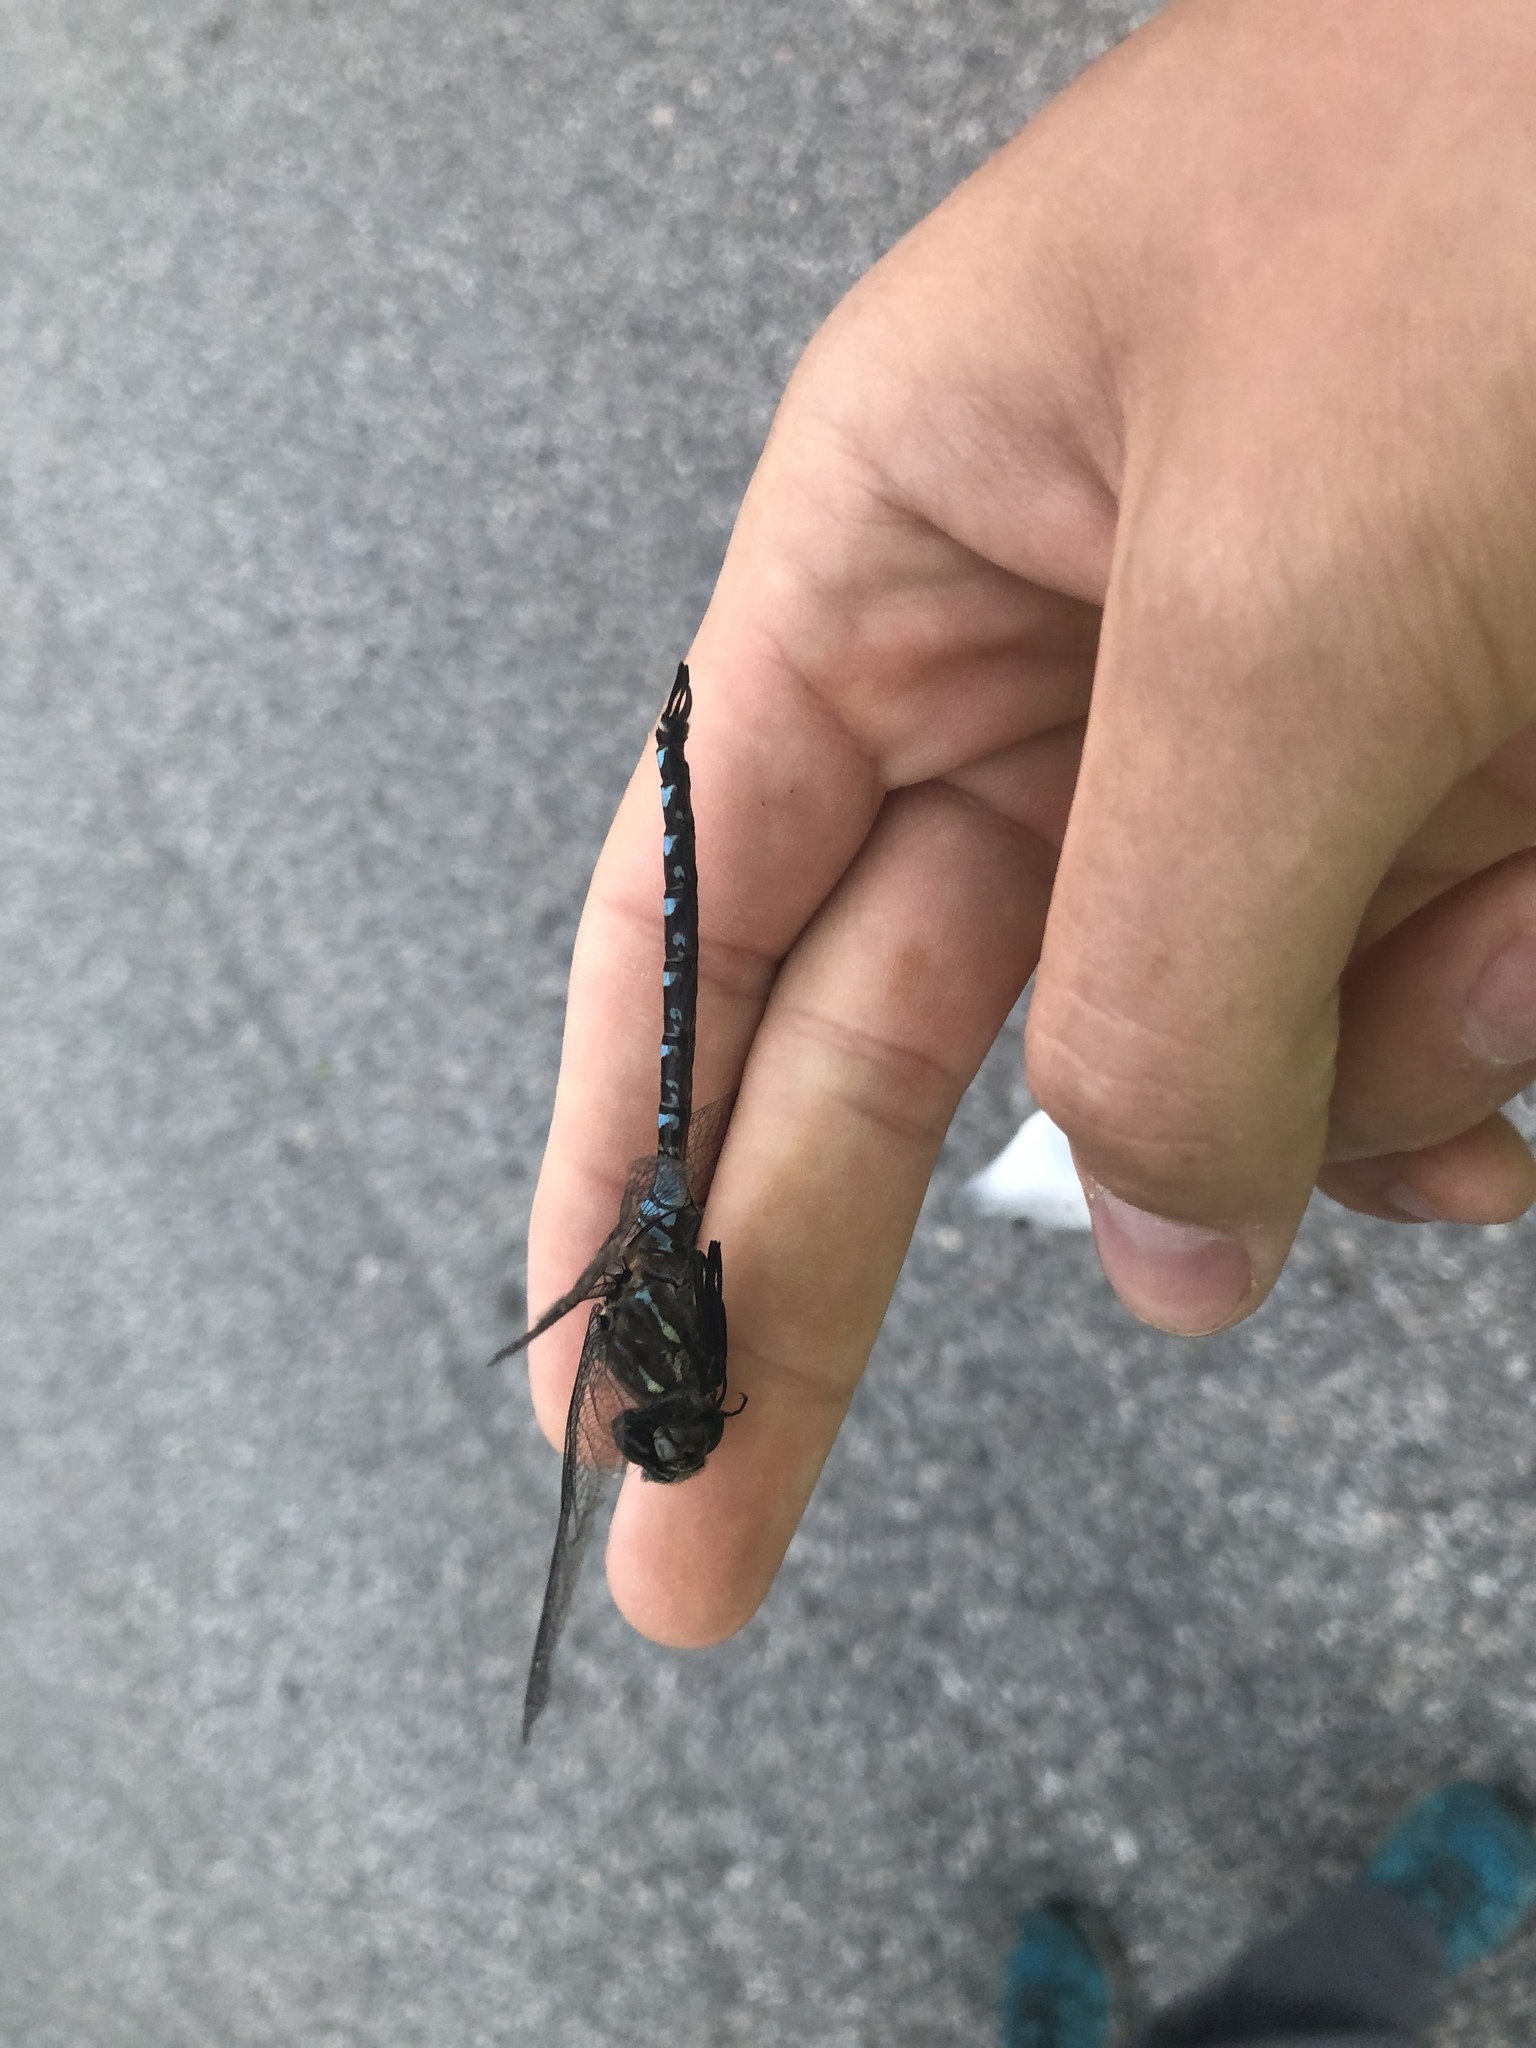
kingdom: Animalia
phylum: Arthropoda
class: Insecta
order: Odonata
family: Aeshnidae
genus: Aeshna
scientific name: Aeshna interrupta
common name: Variable darner
